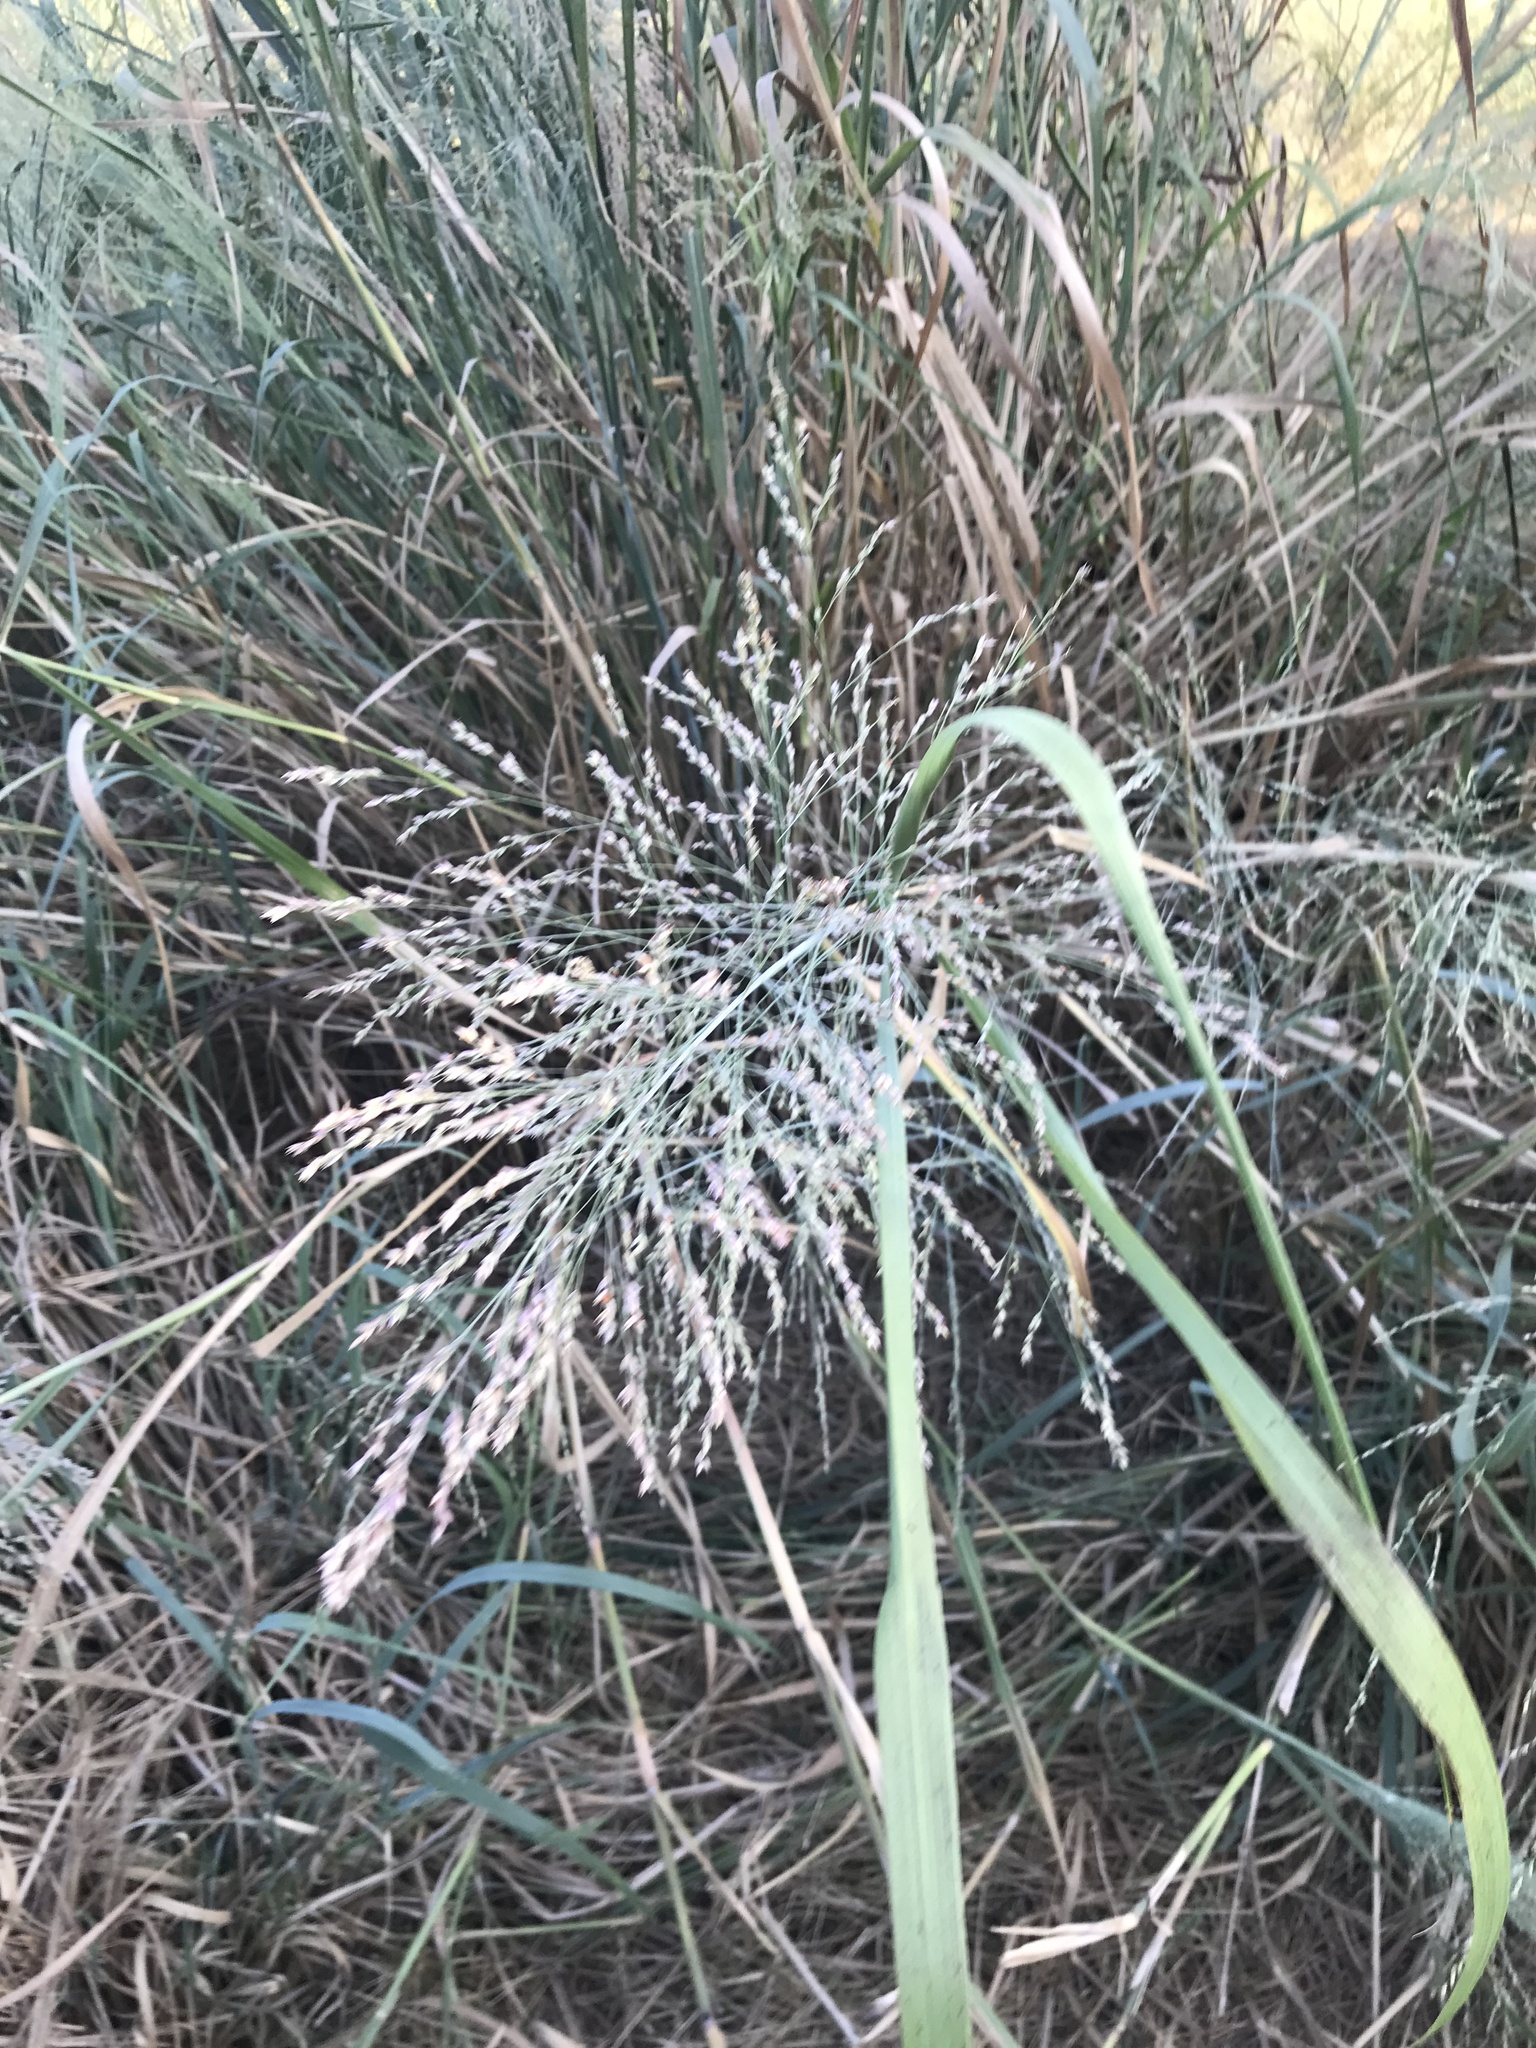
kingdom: Plantae
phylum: Tracheophyta
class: Liliopsida
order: Poales
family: Poaceae
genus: Panicum
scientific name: Panicum virgatum
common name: Switchgrass
